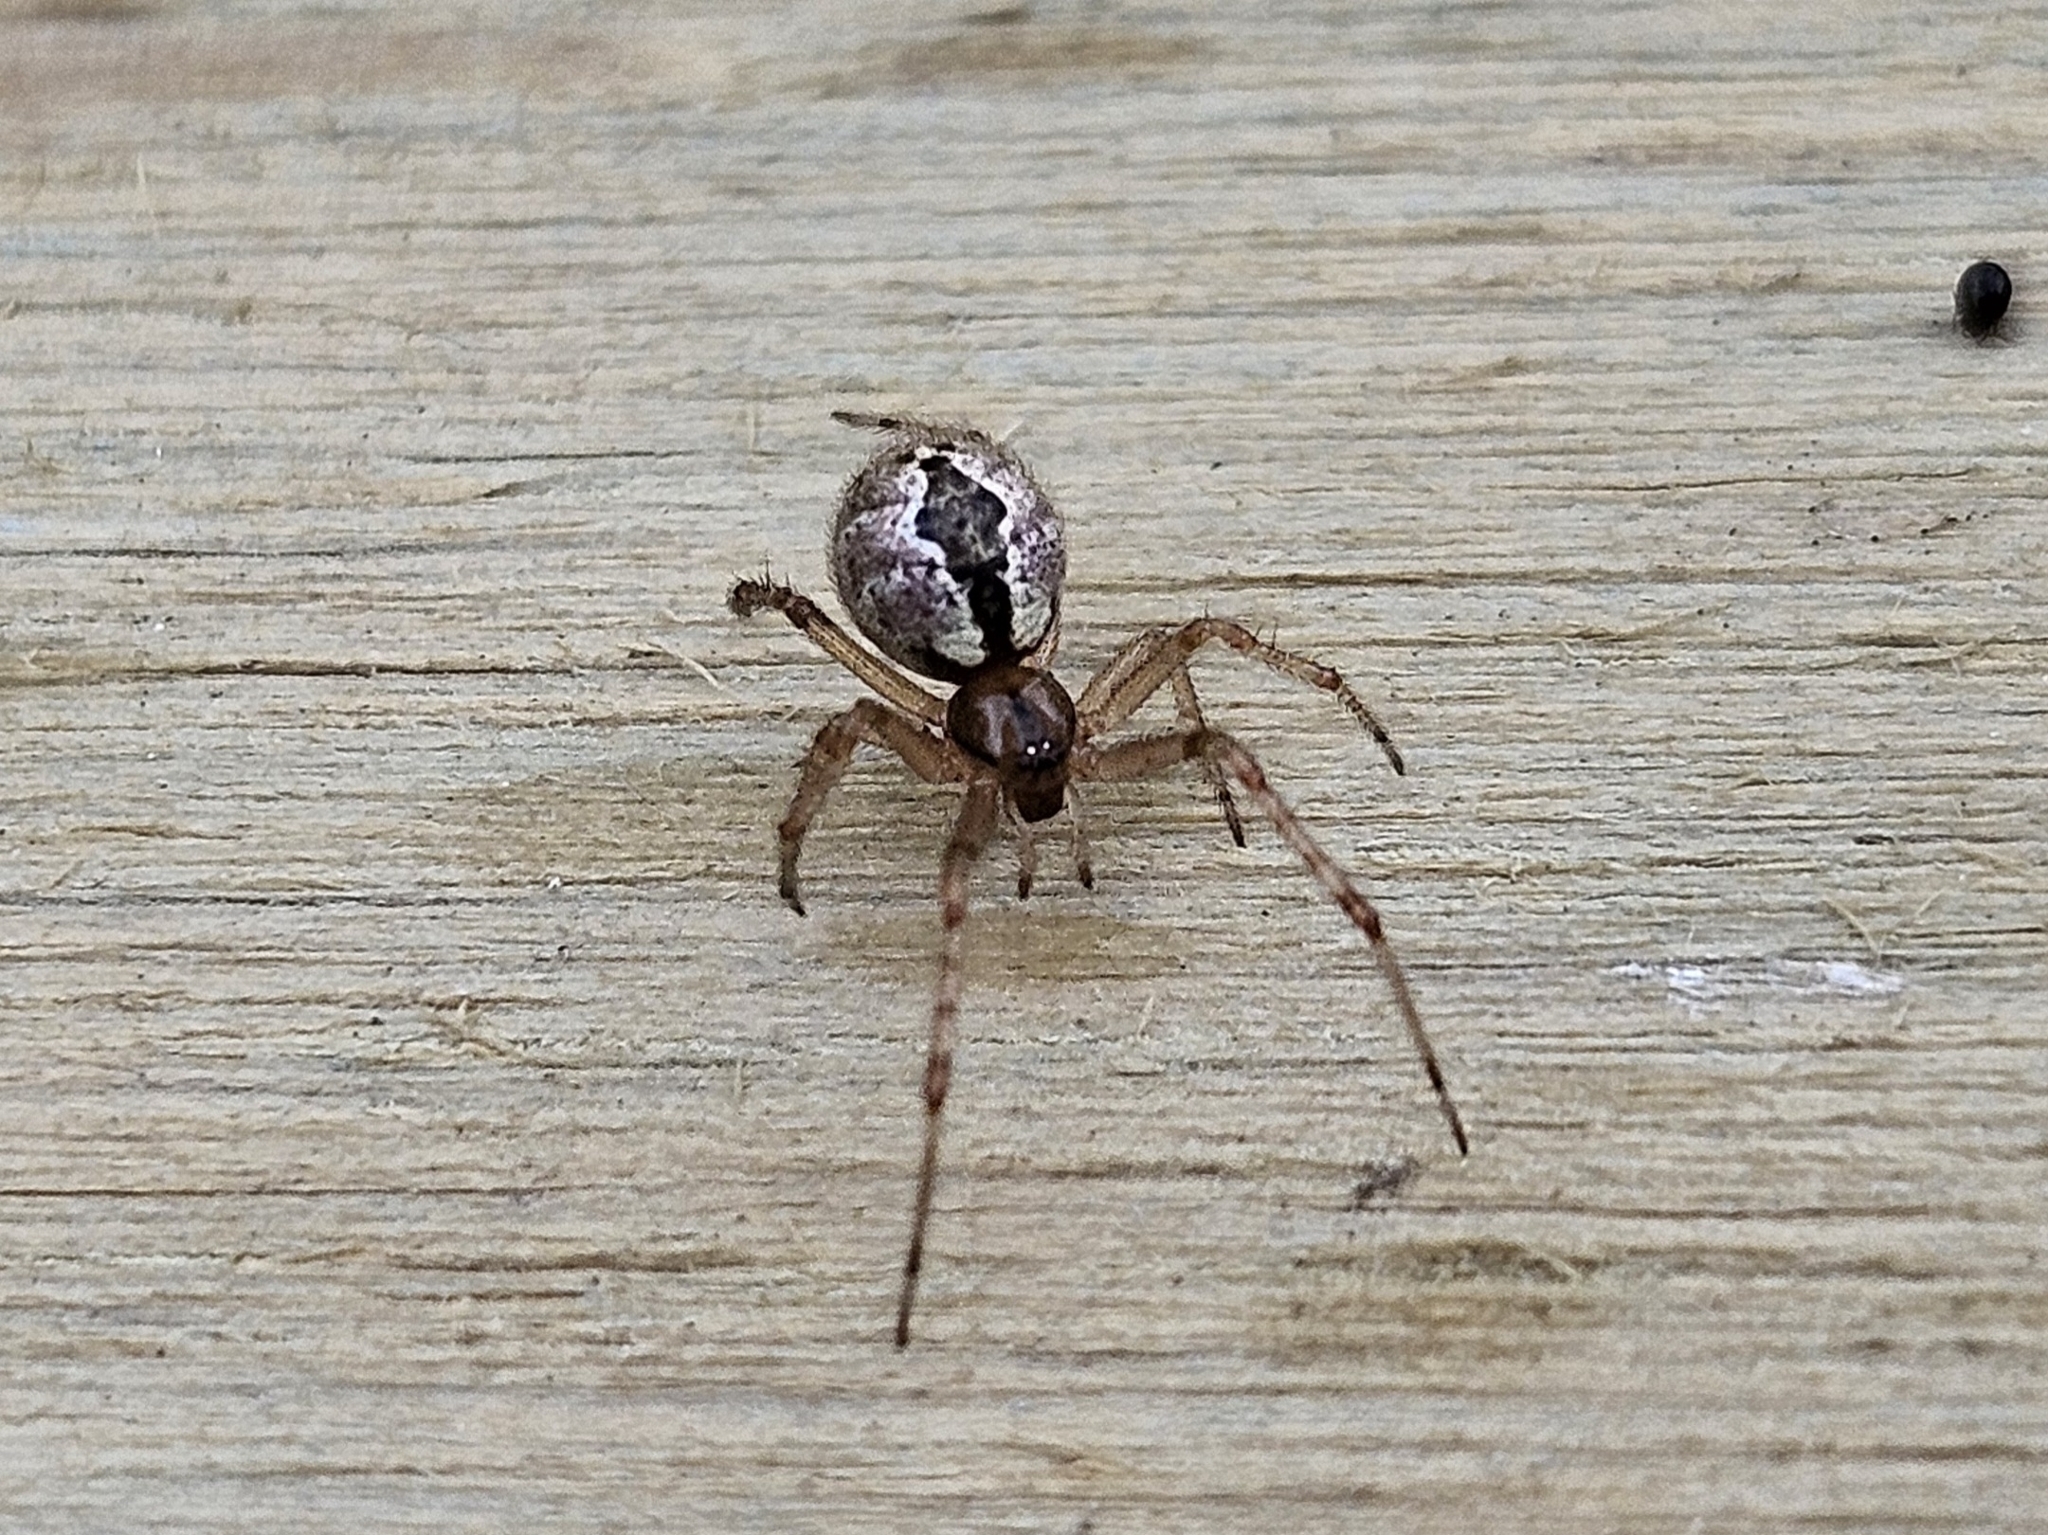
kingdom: Animalia
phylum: Arthropoda
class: Arachnida
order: Araneae
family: Theridiidae
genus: Cryptachaea
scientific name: Cryptachaea veruculata
